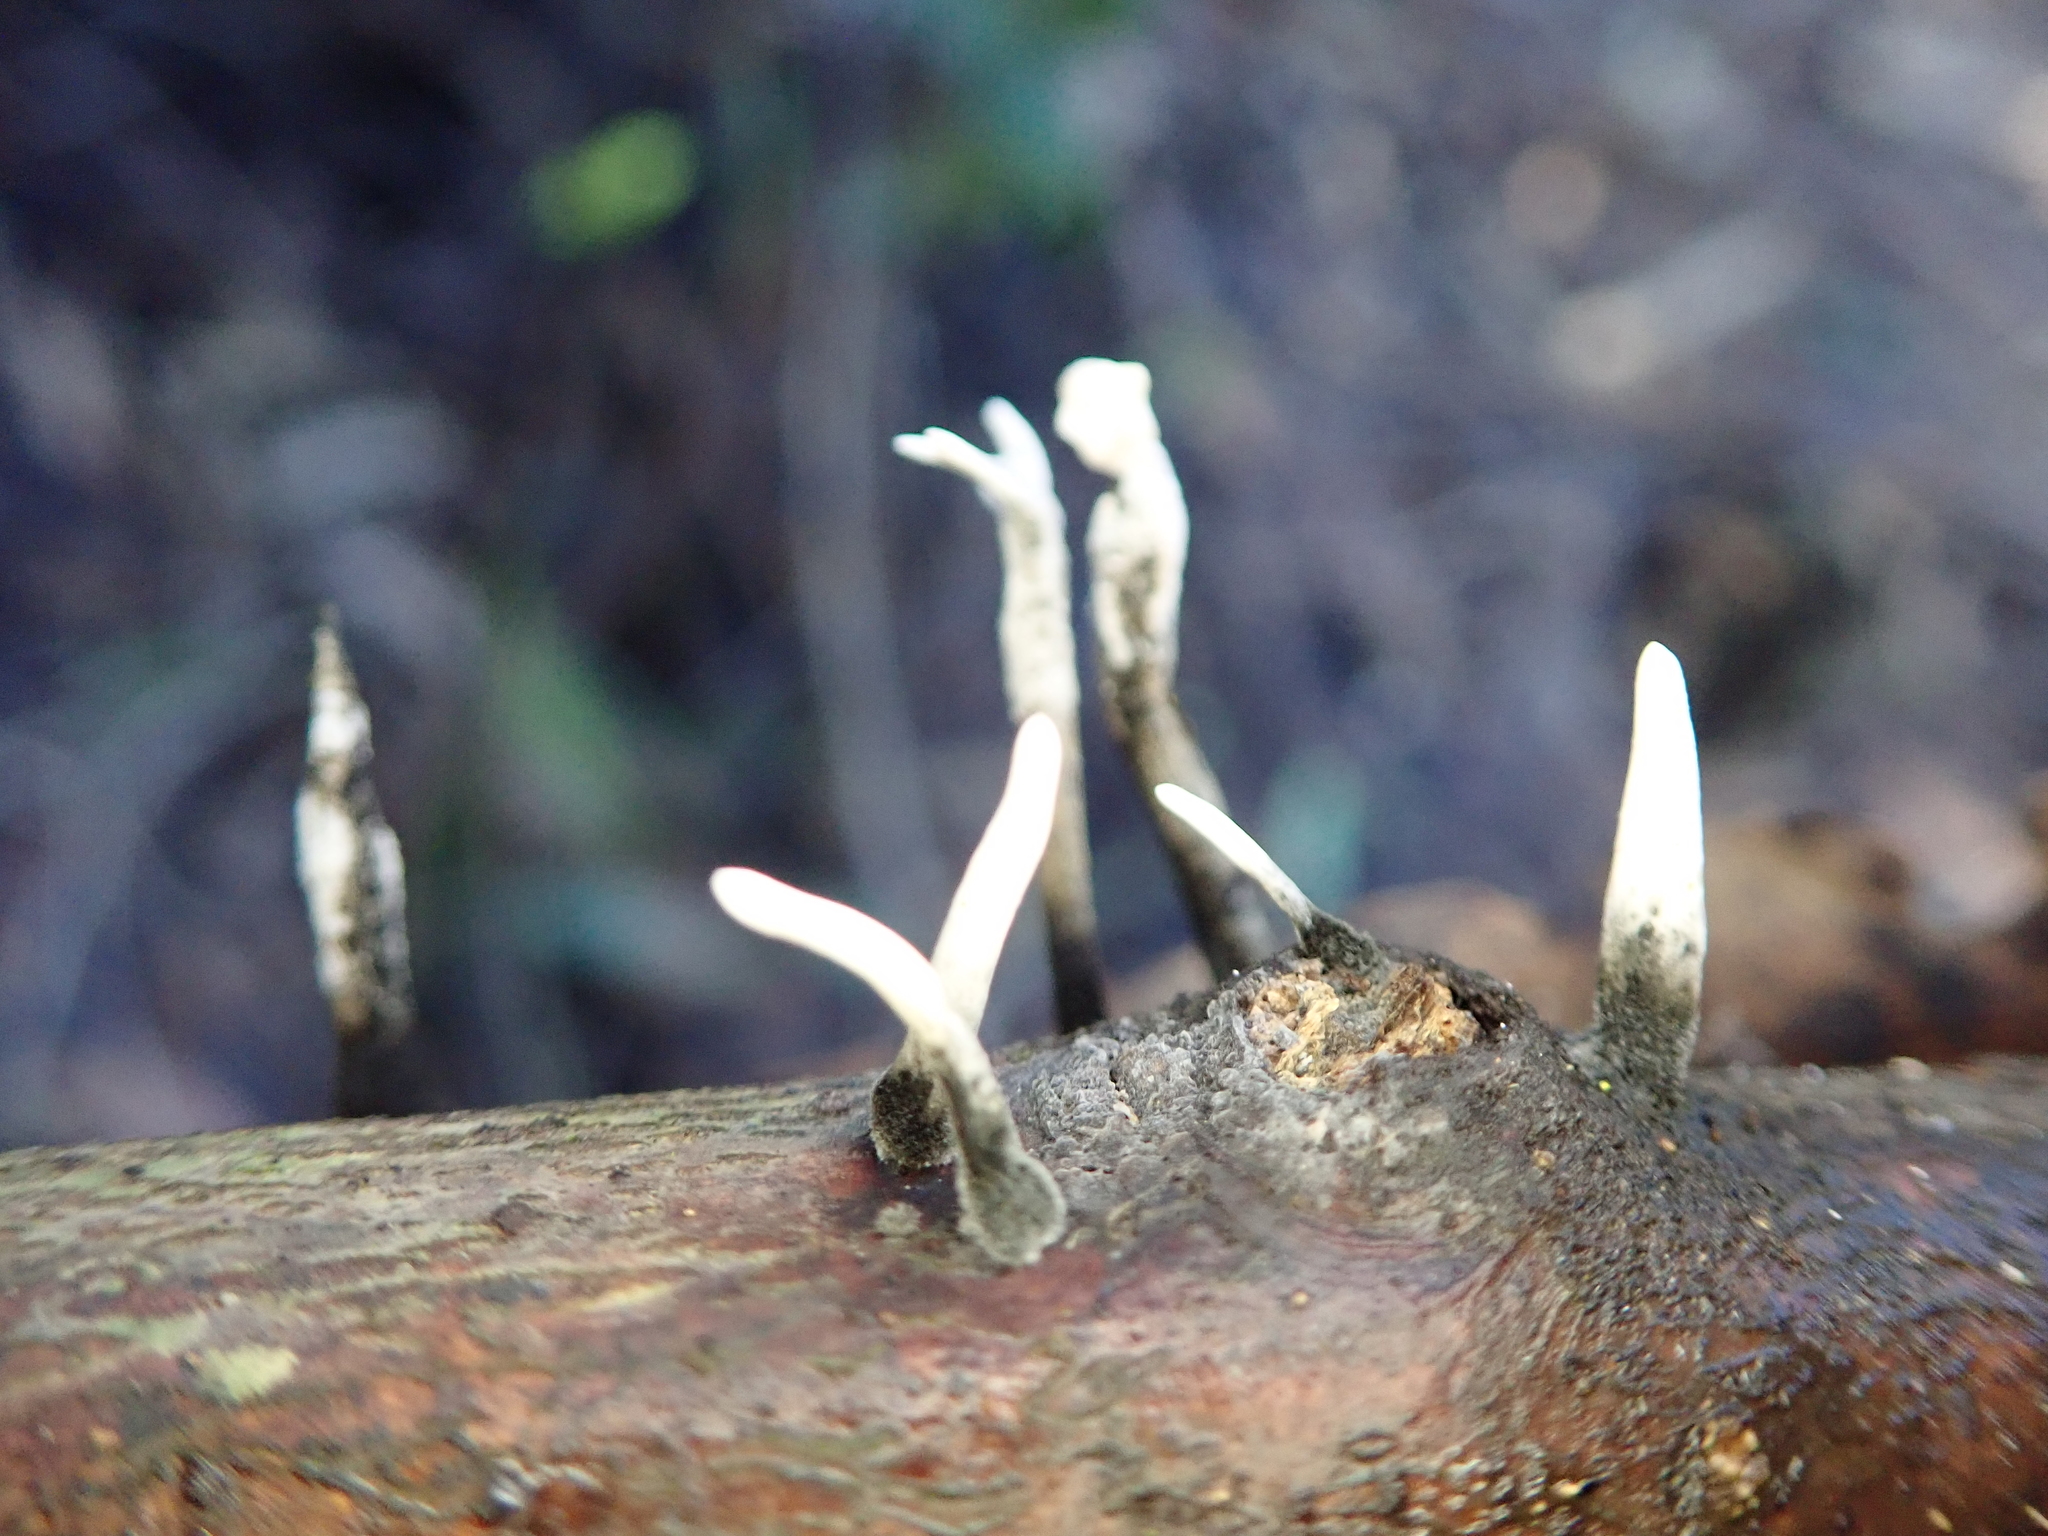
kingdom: Fungi
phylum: Ascomycota
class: Sordariomycetes
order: Xylariales
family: Xylariaceae
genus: Xylaria
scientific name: Xylaria hypoxylon
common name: Candle-snuff fungus
